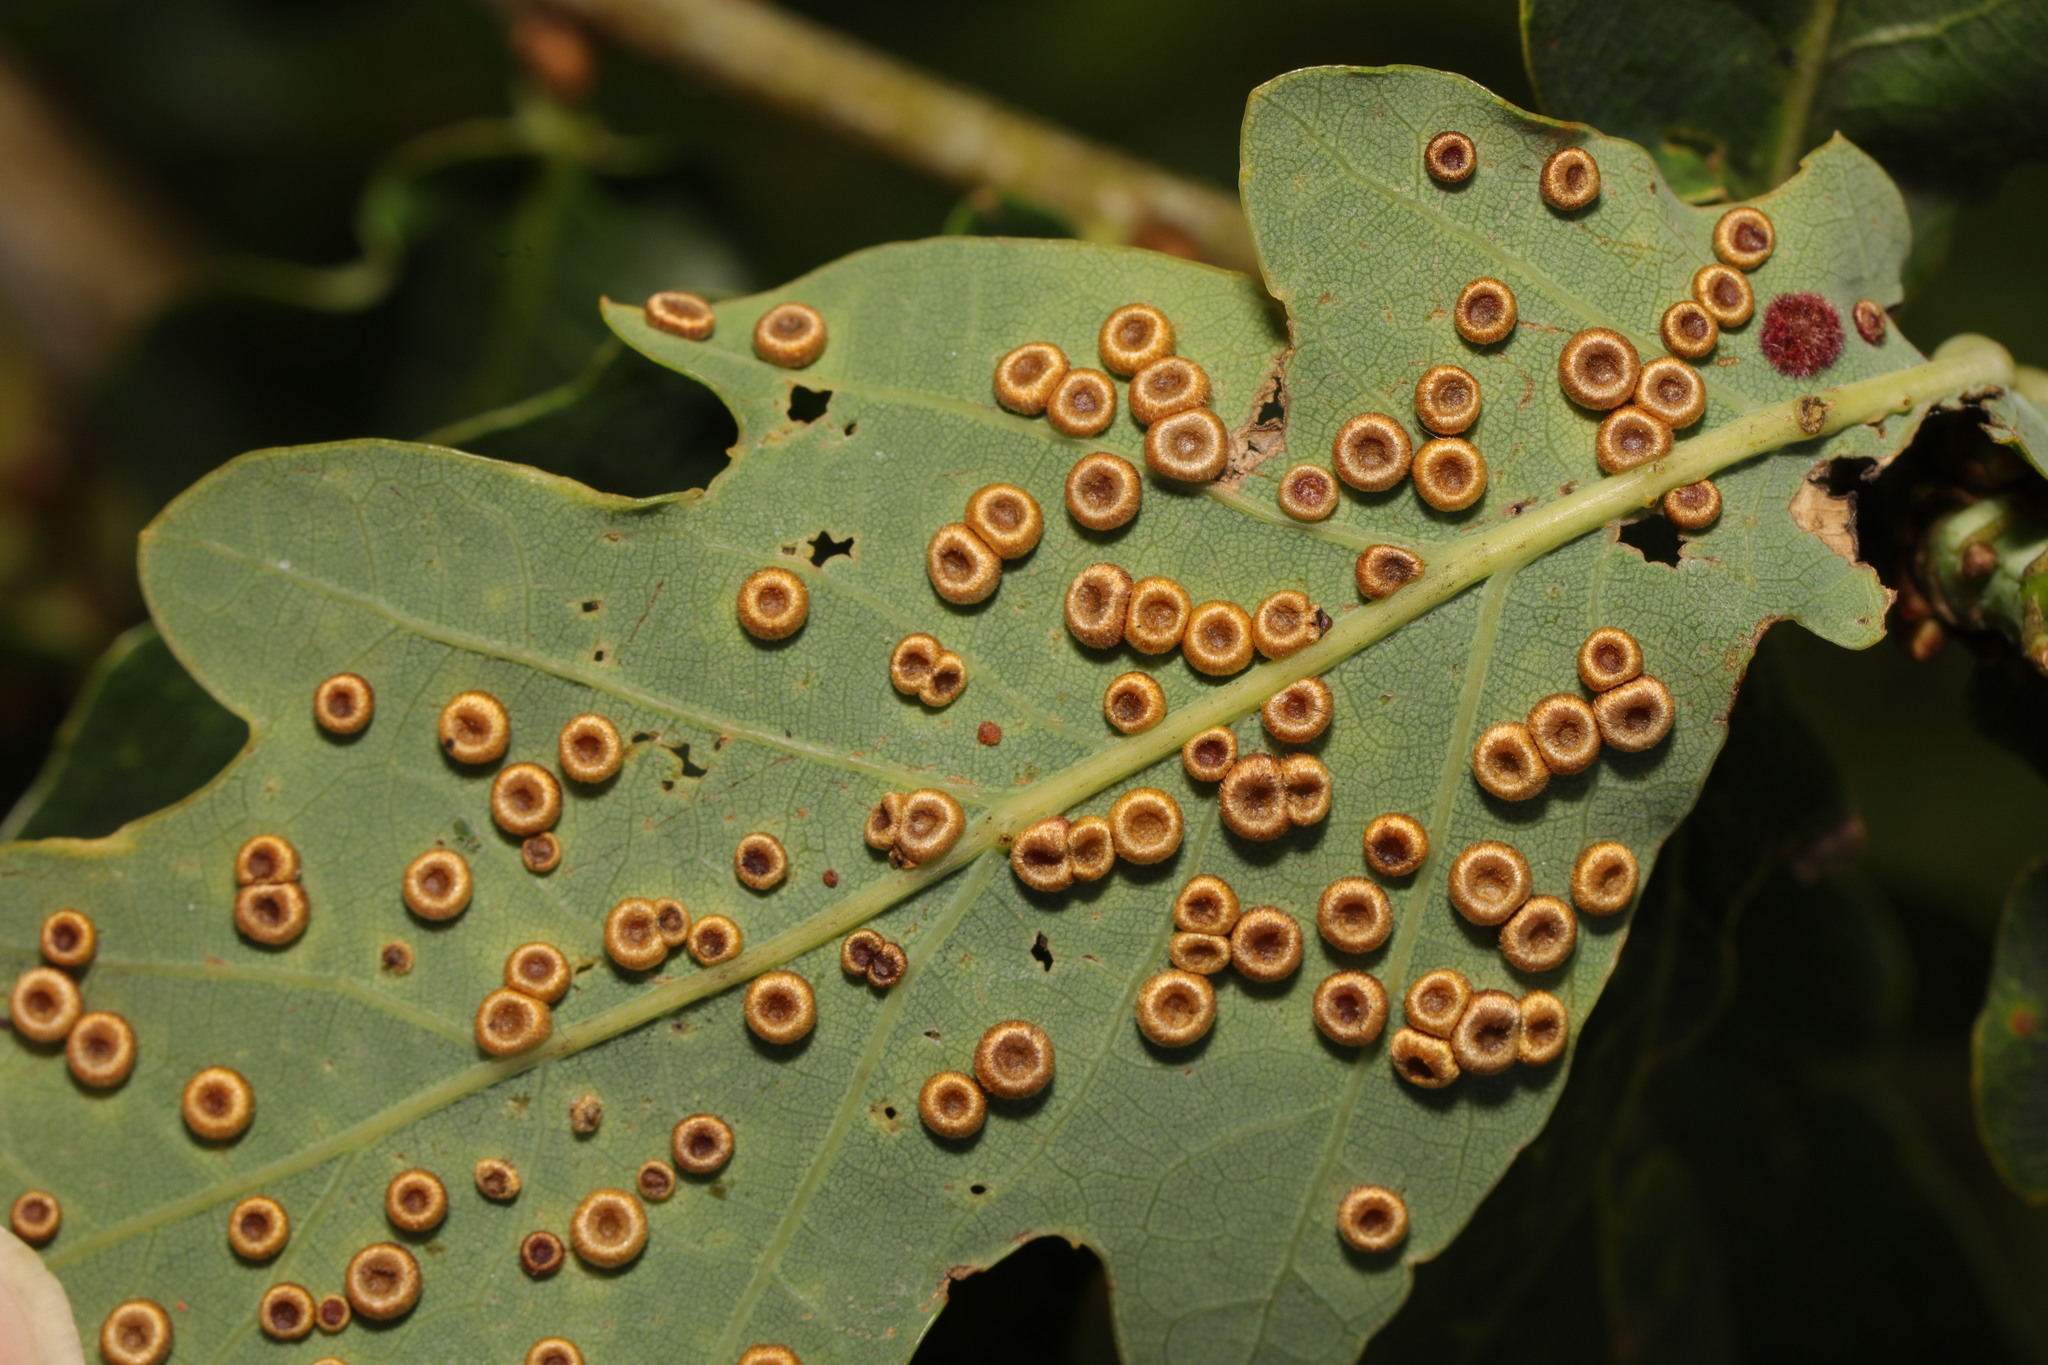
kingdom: Animalia
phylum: Arthropoda
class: Insecta
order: Hymenoptera
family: Cynipidae
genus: Neuroterus
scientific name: Neuroterus numismalis
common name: Silk-button spangle gall
